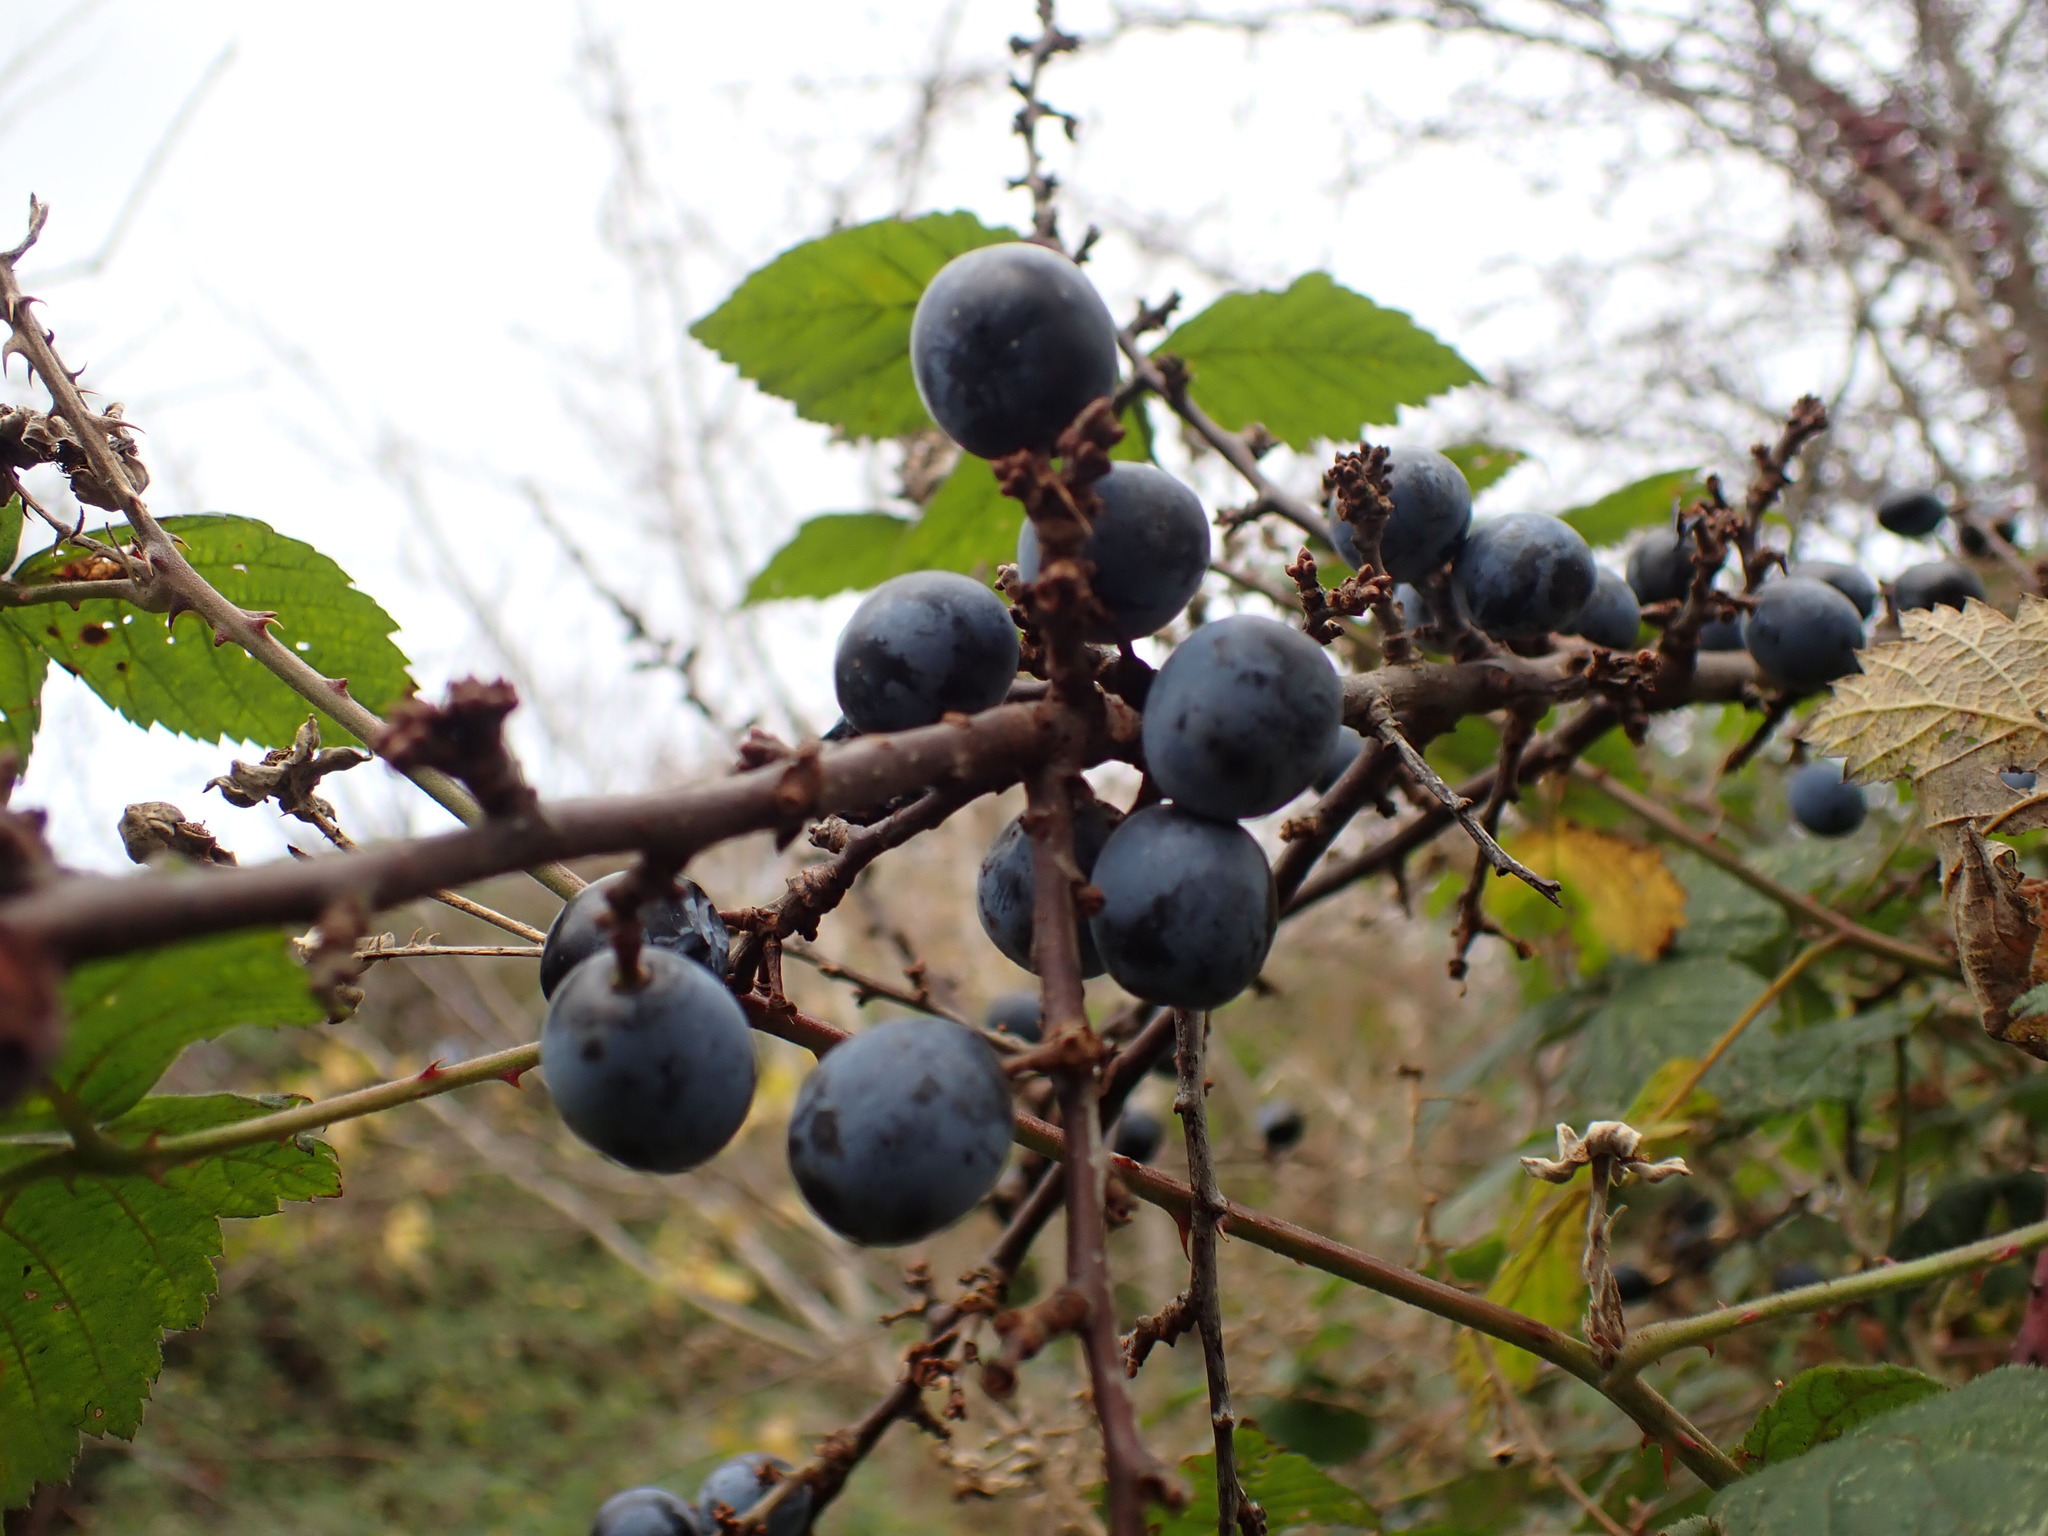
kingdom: Plantae
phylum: Tracheophyta
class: Magnoliopsida
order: Rosales
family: Rosaceae
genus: Prunus
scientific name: Prunus spinosa
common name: Blackthorn
